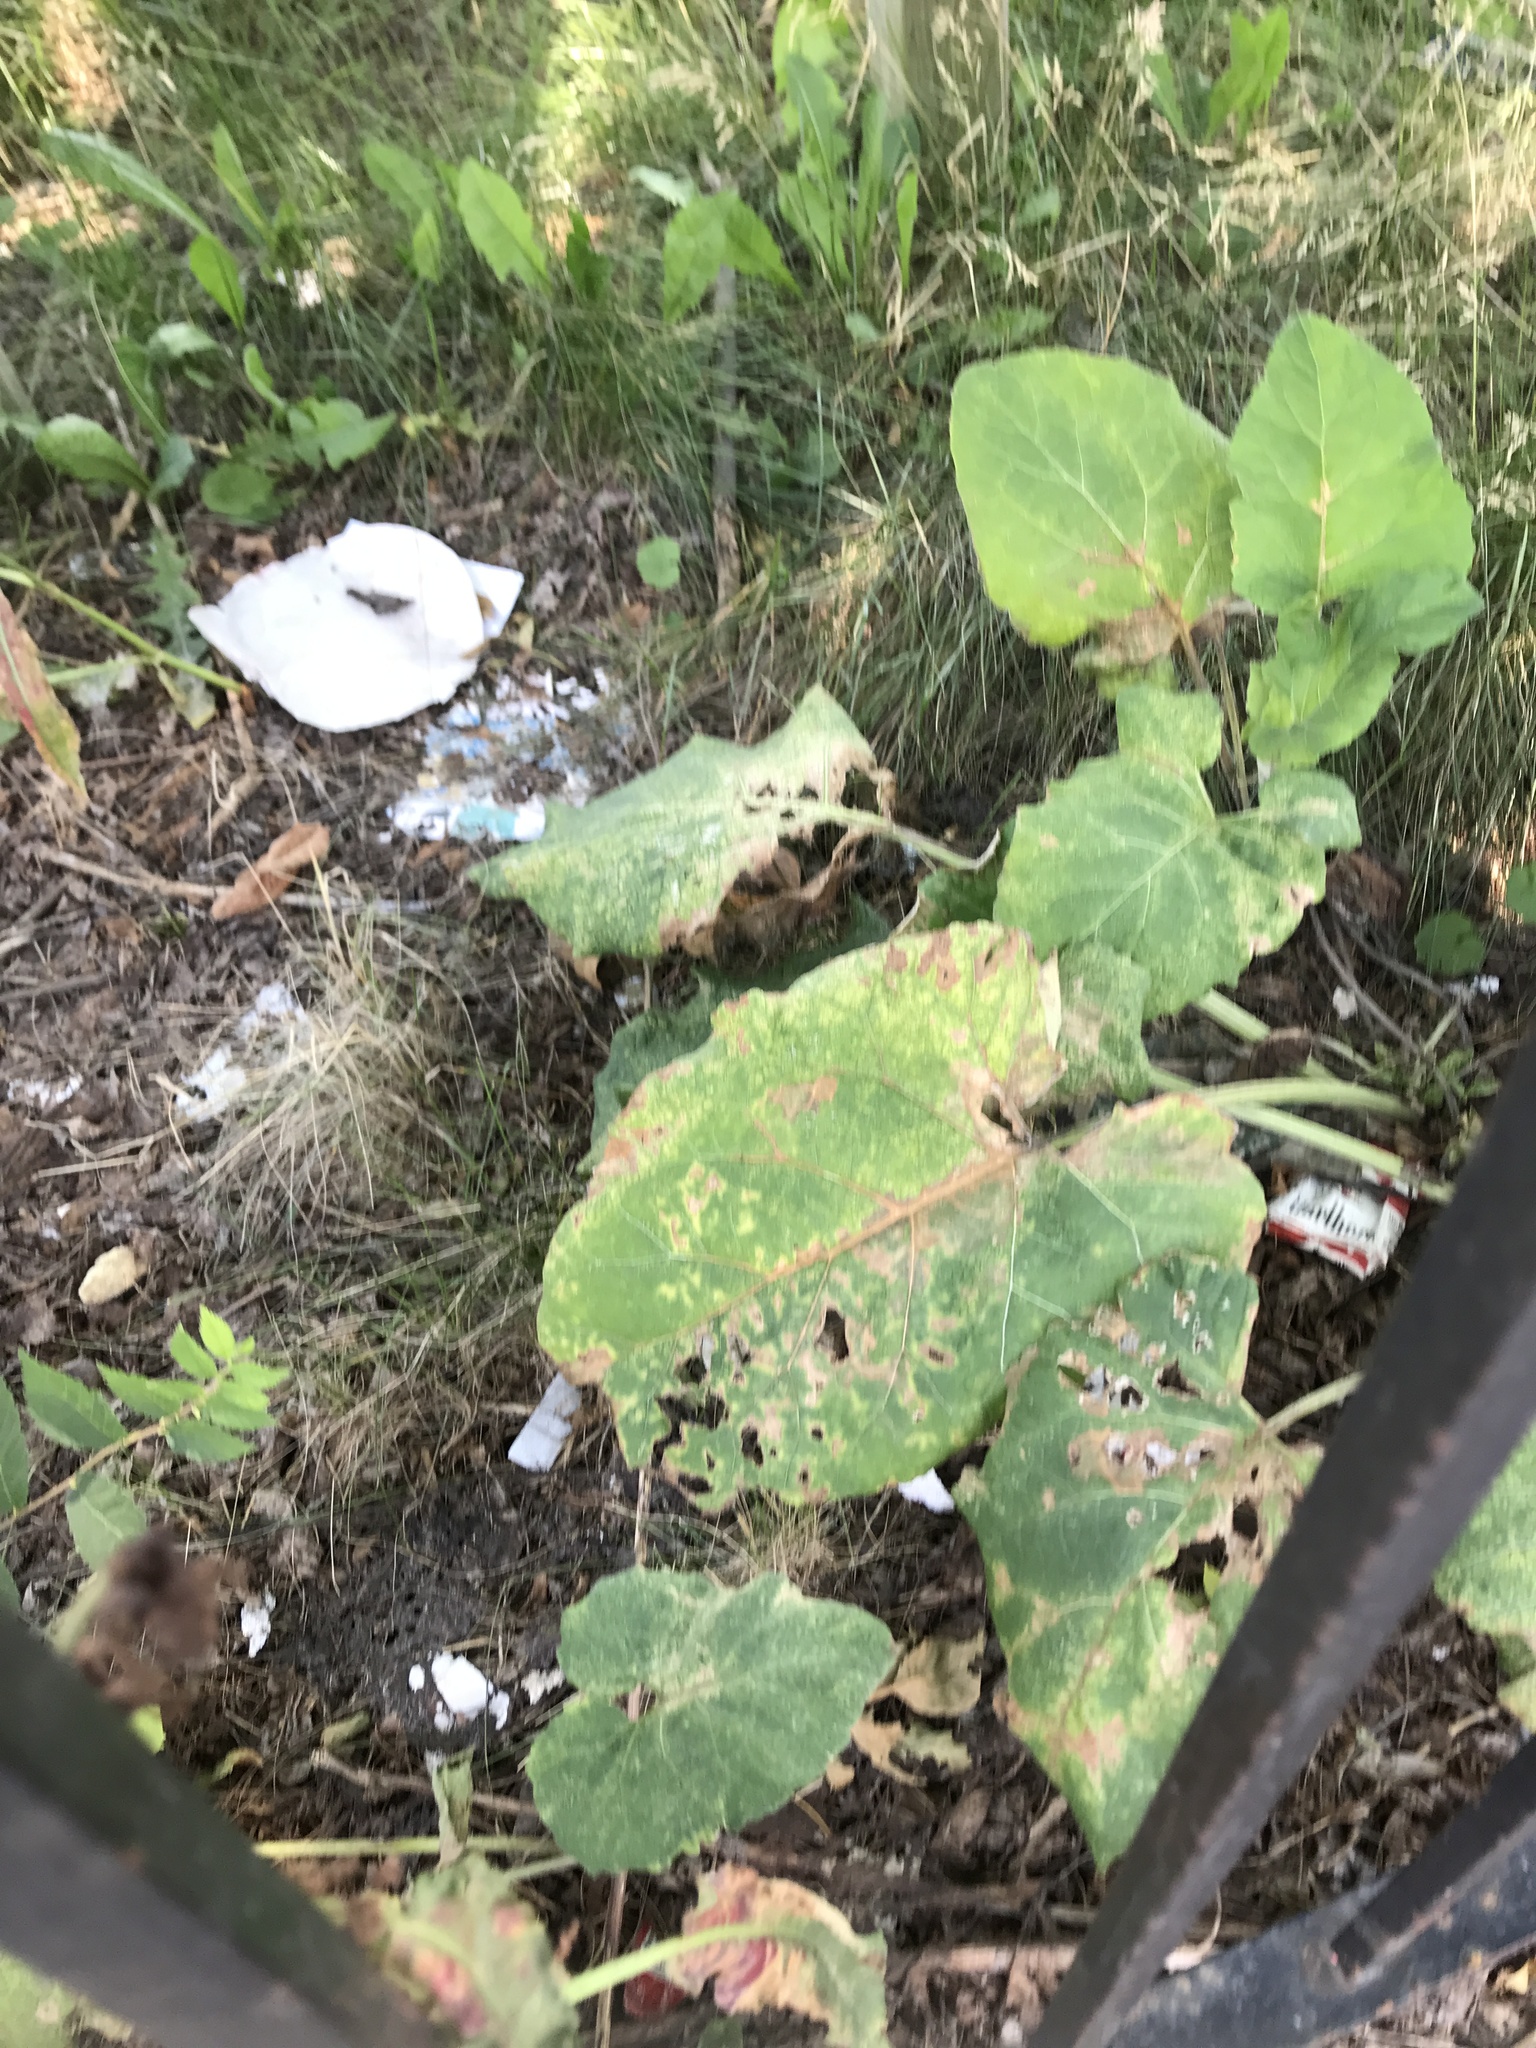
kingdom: Plantae
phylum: Tracheophyta
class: Magnoliopsida
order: Asterales
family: Asteraceae
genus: Arctium
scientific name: Arctium
